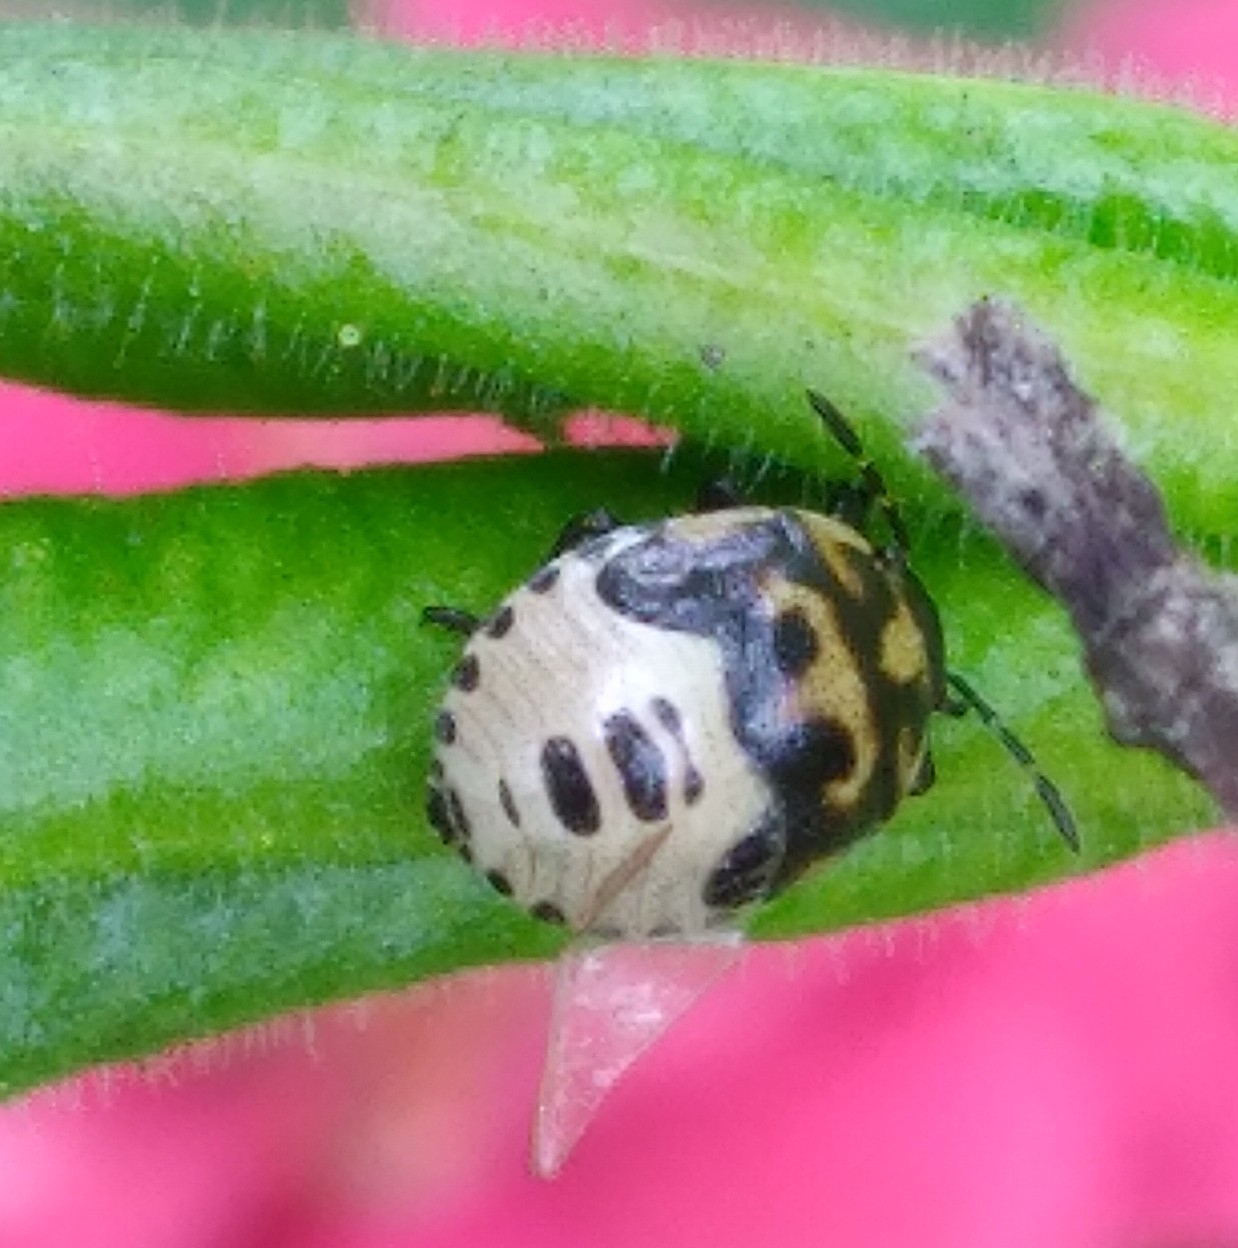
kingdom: Animalia
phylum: Arthropoda
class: Insecta
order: Hemiptera
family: Pentatomidae
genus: Cosmopepla
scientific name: Cosmopepla lintneriana
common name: Twice-stabbed stink bug
